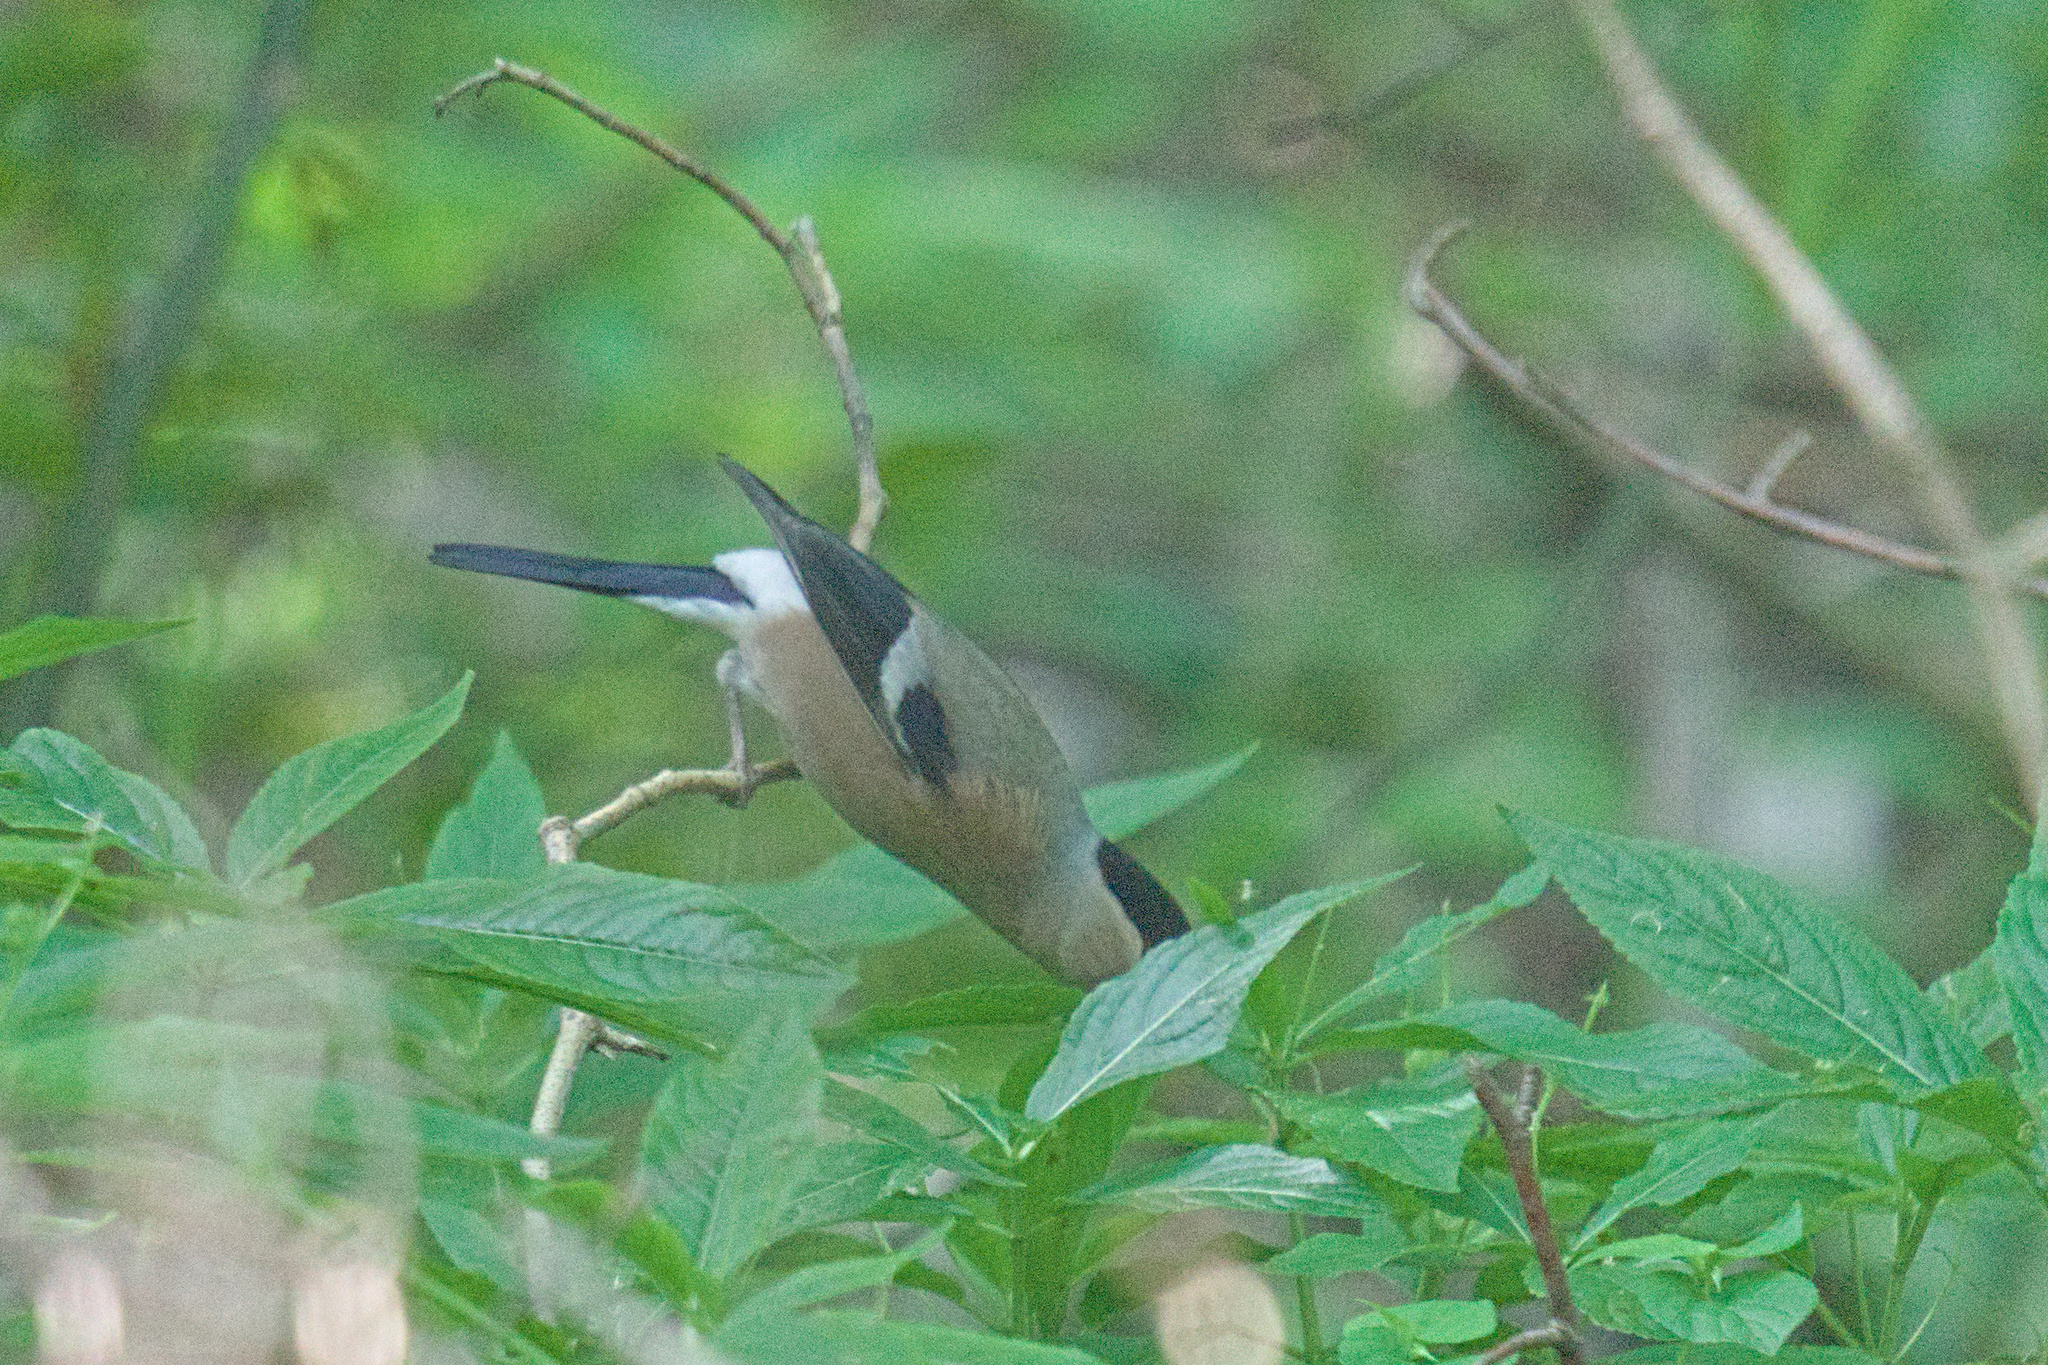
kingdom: Animalia
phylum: Chordata
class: Aves
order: Passeriformes
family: Fringillidae
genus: Pyrrhula
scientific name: Pyrrhula pyrrhula
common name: Eurasian bullfinch
